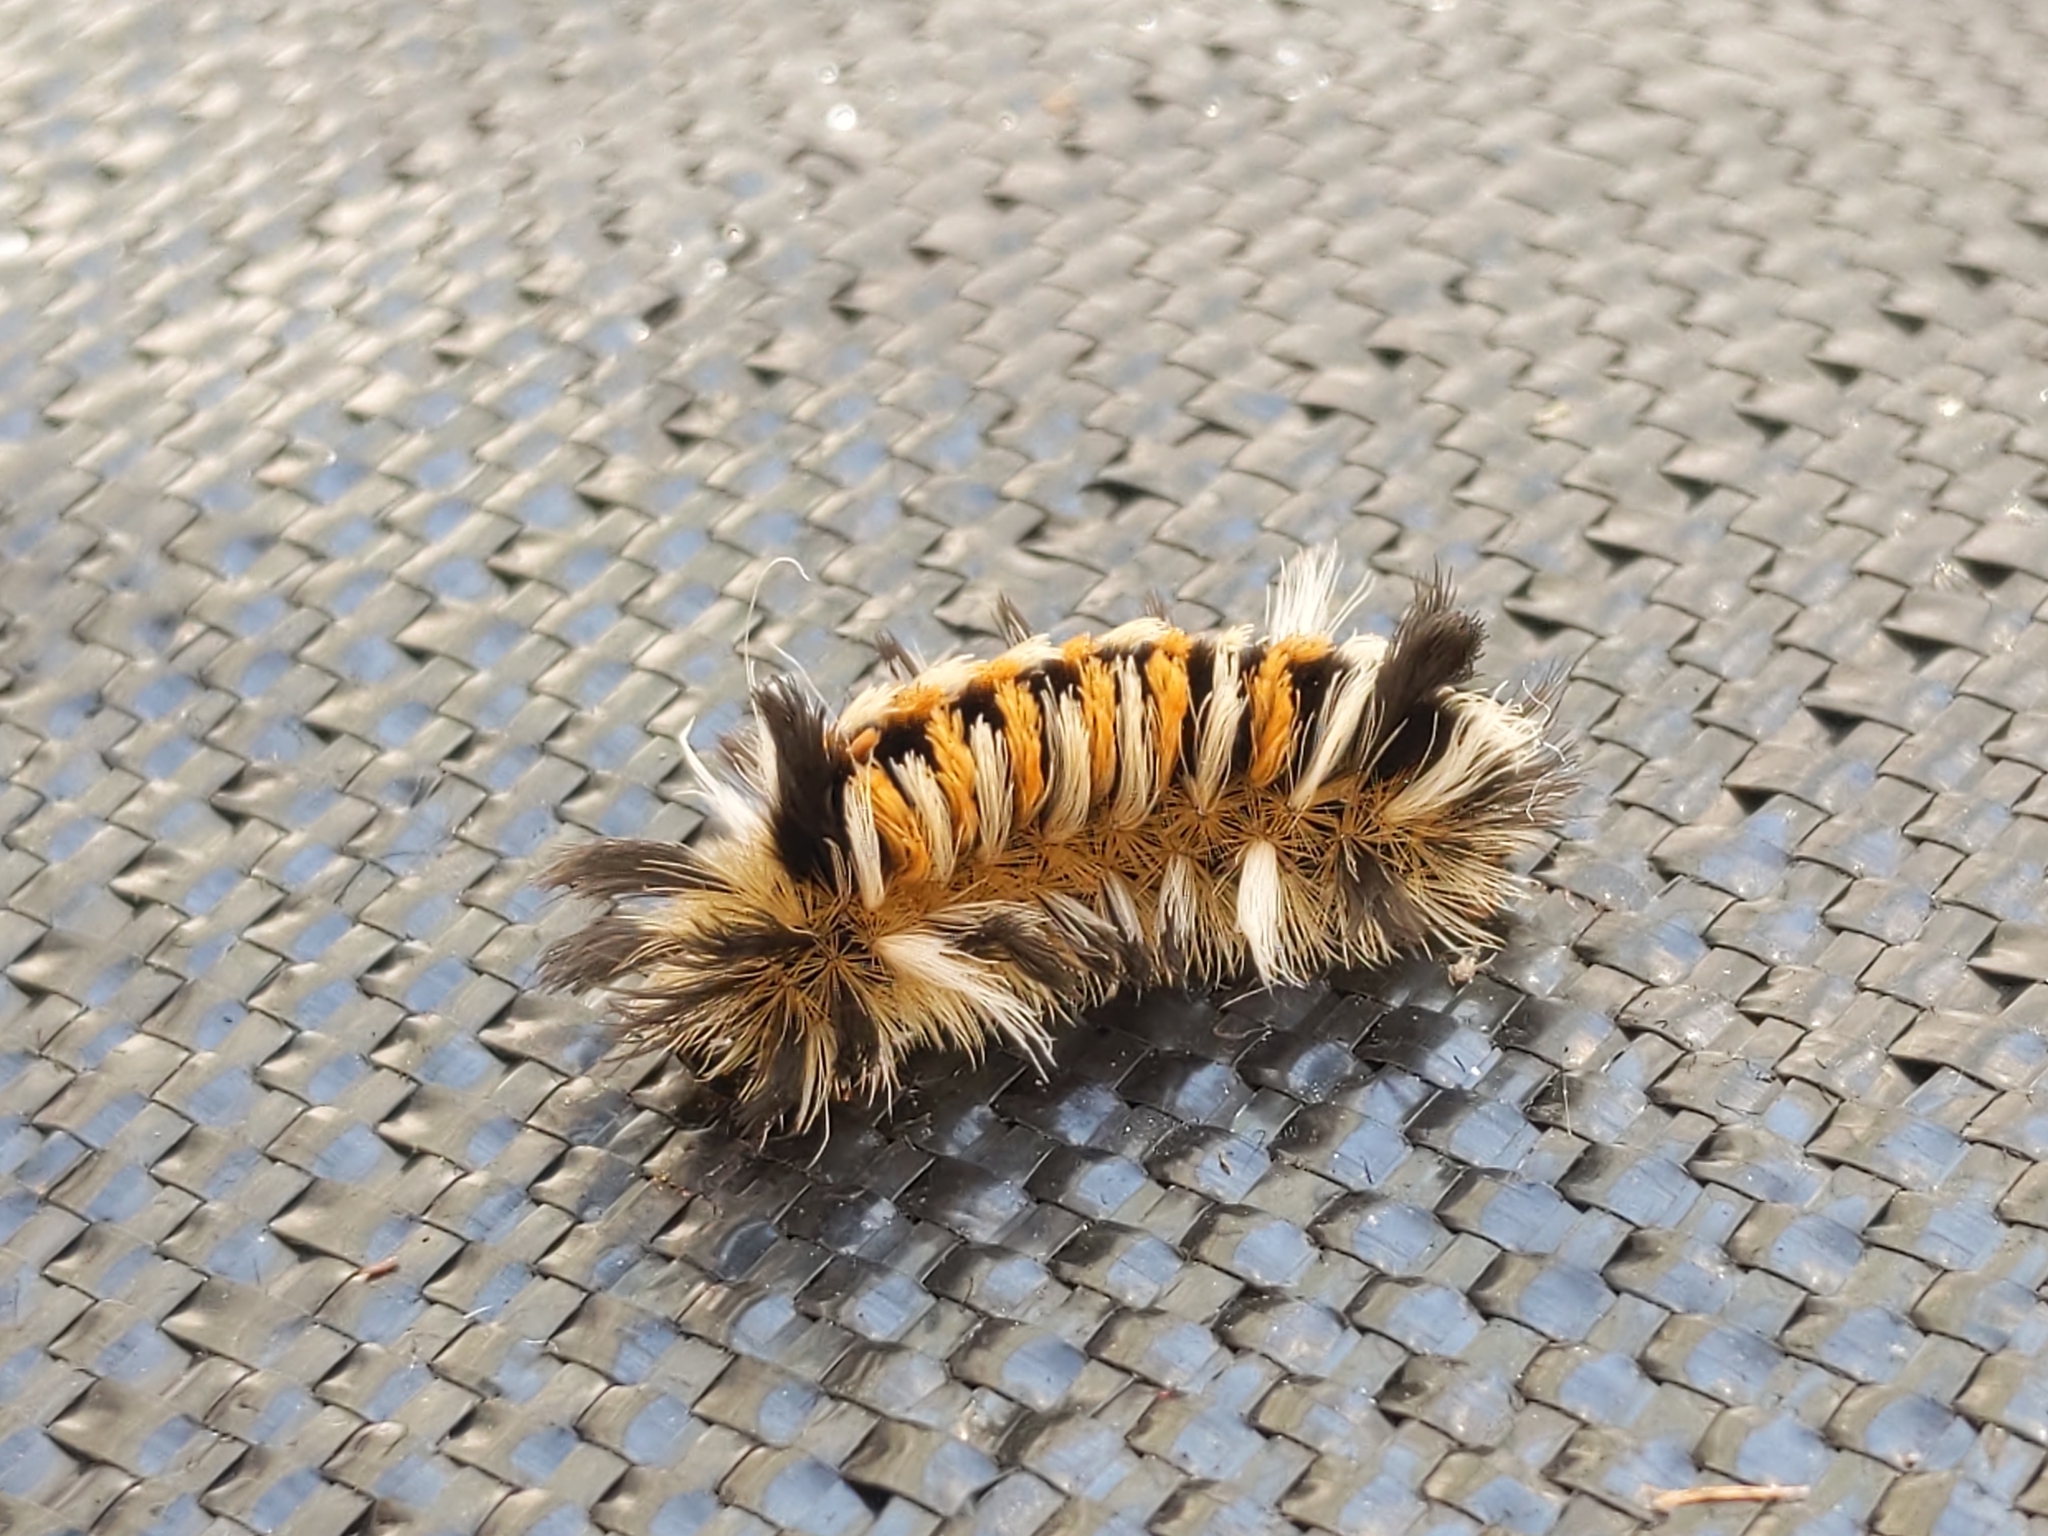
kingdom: Animalia
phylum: Arthropoda
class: Insecta
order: Lepidoptera
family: Erebidae
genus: Euchaetes
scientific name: Euchaetes egle
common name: Milkweed tussock moth
